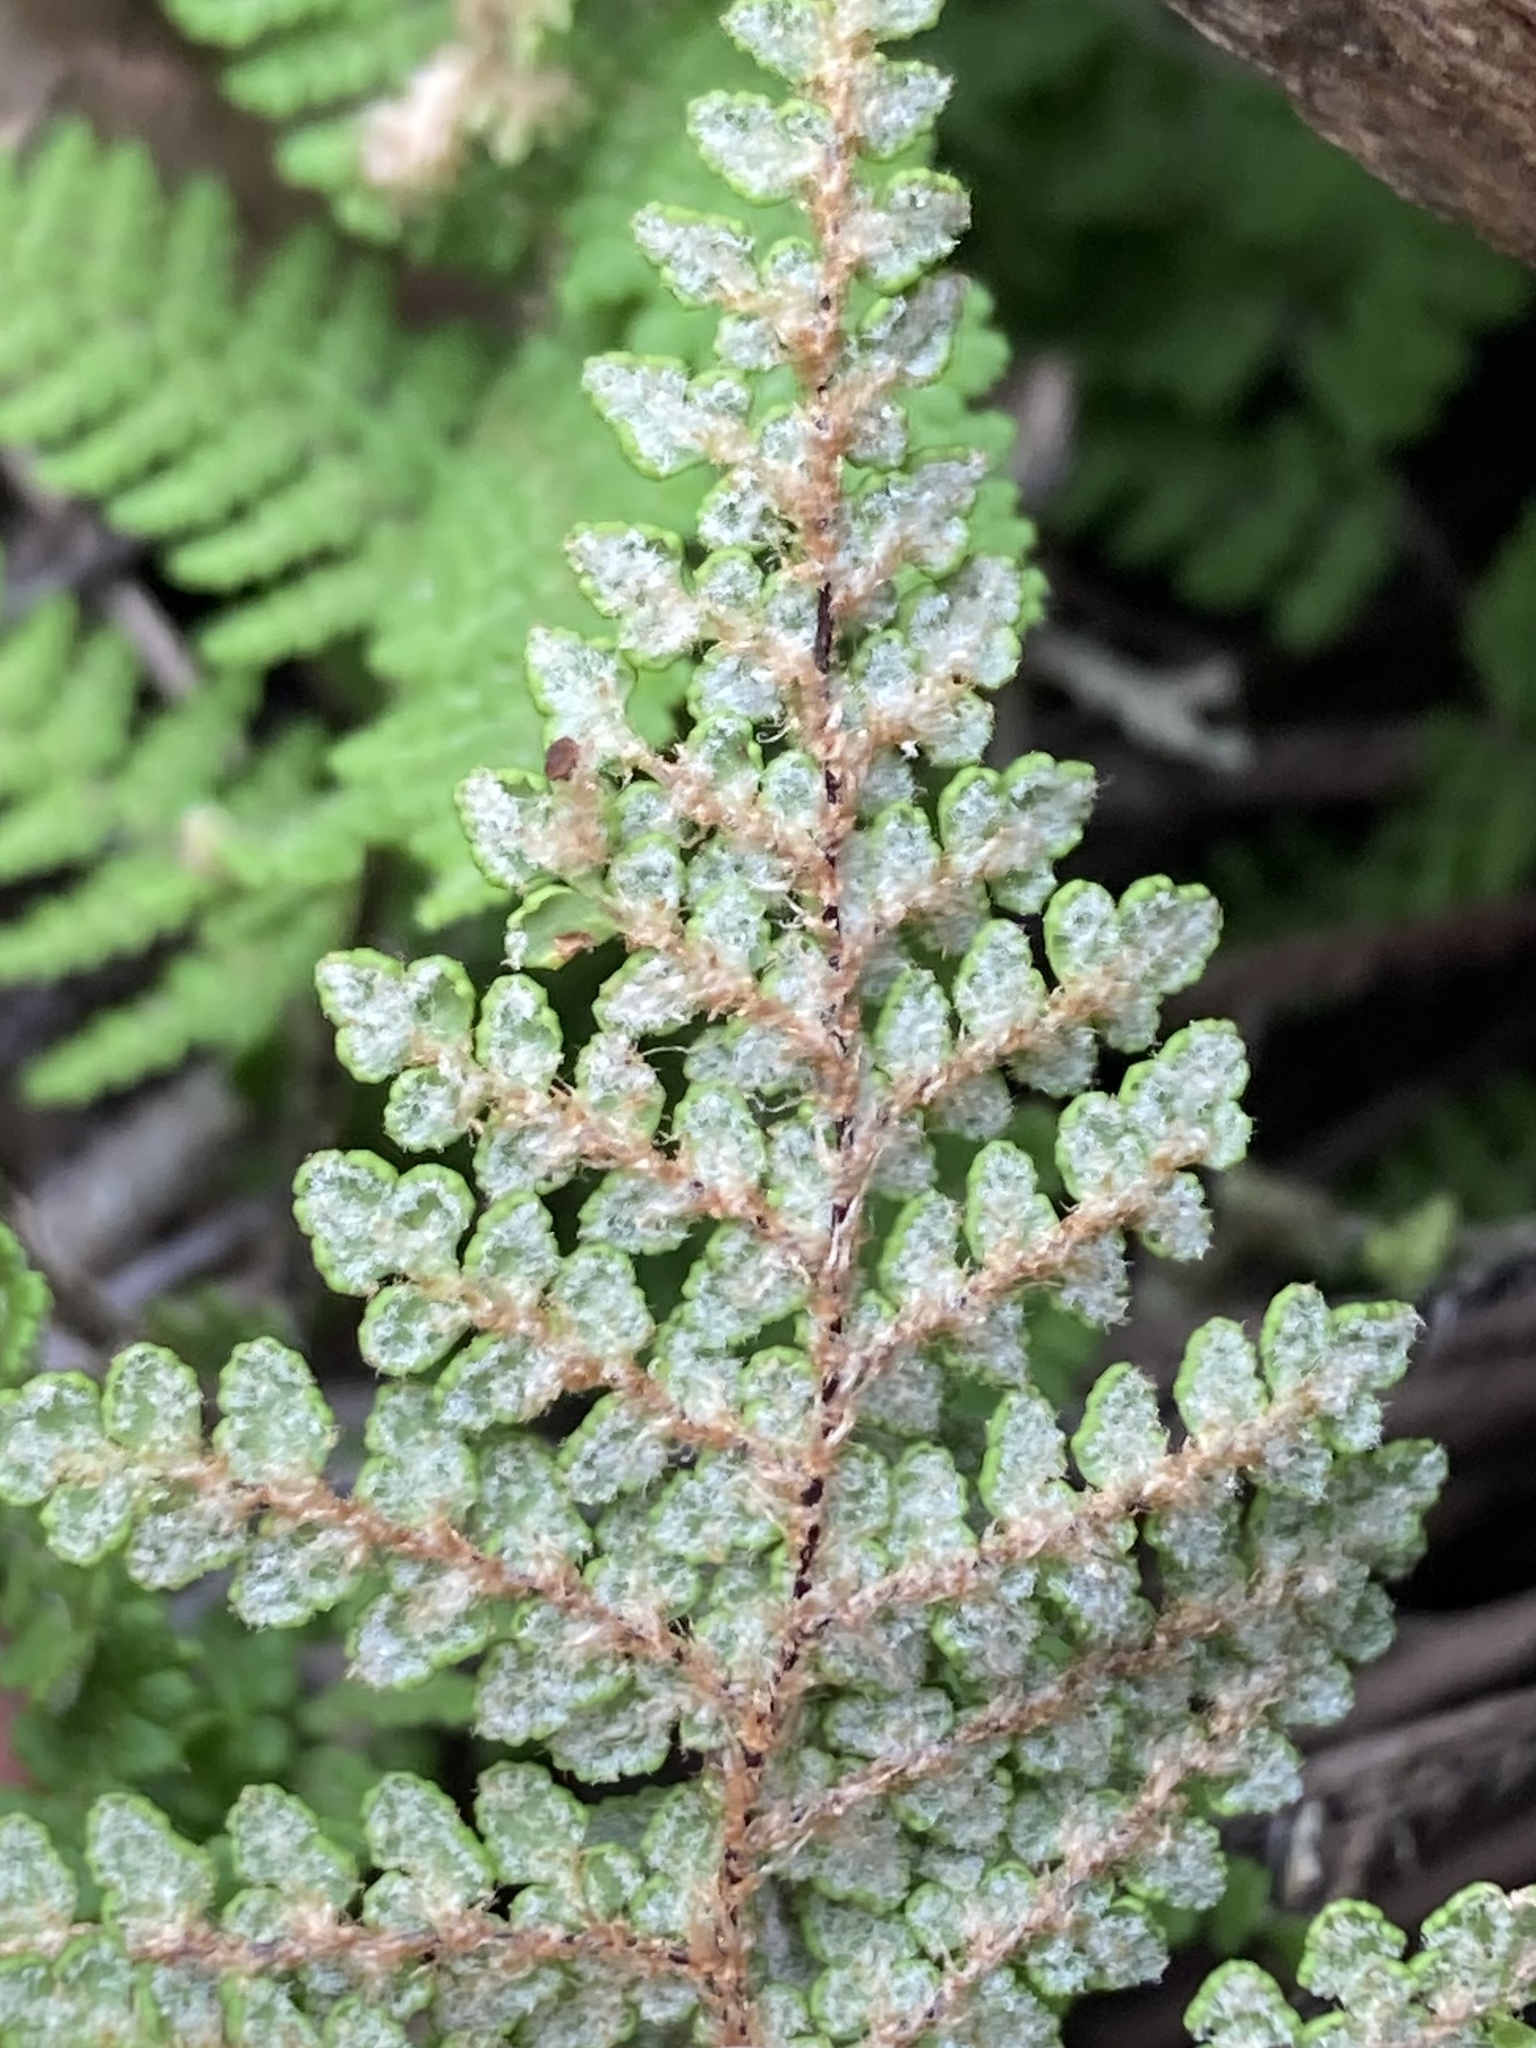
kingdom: Plantae
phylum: Tracheophyta
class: Polypodiopsida
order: Polypodiales
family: Pteridaceae
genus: Myriopteris
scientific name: Myriopteris clevelandii
